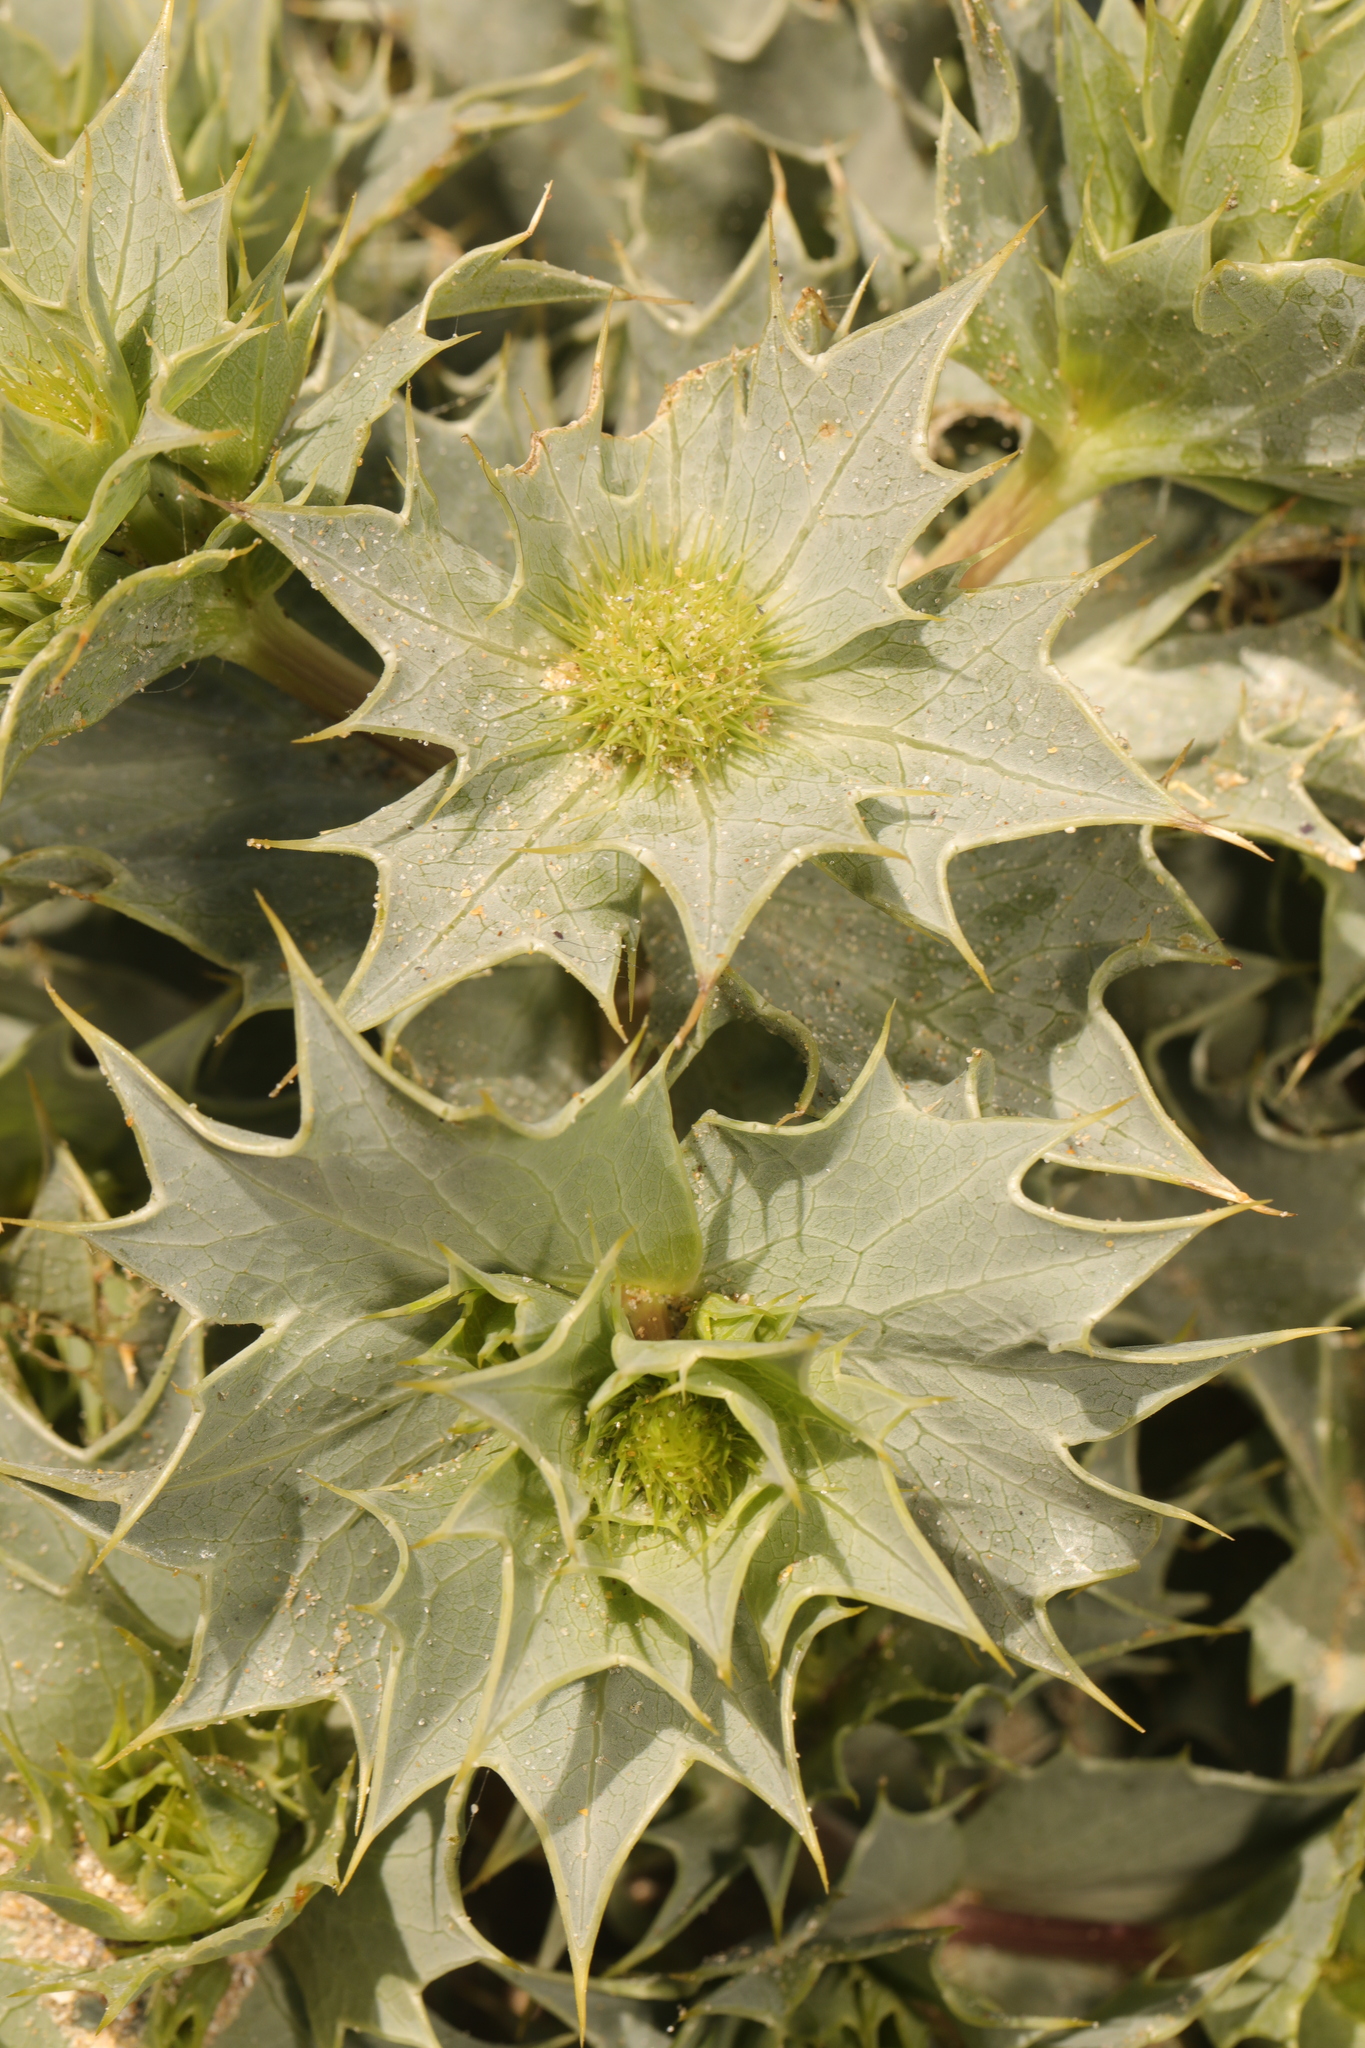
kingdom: Plantae
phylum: Tracheophyta
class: Magnoliopsida
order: Apiales
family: Apiaceae
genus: Eryngium
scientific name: Eryngium maritimum
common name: Sea-holly
